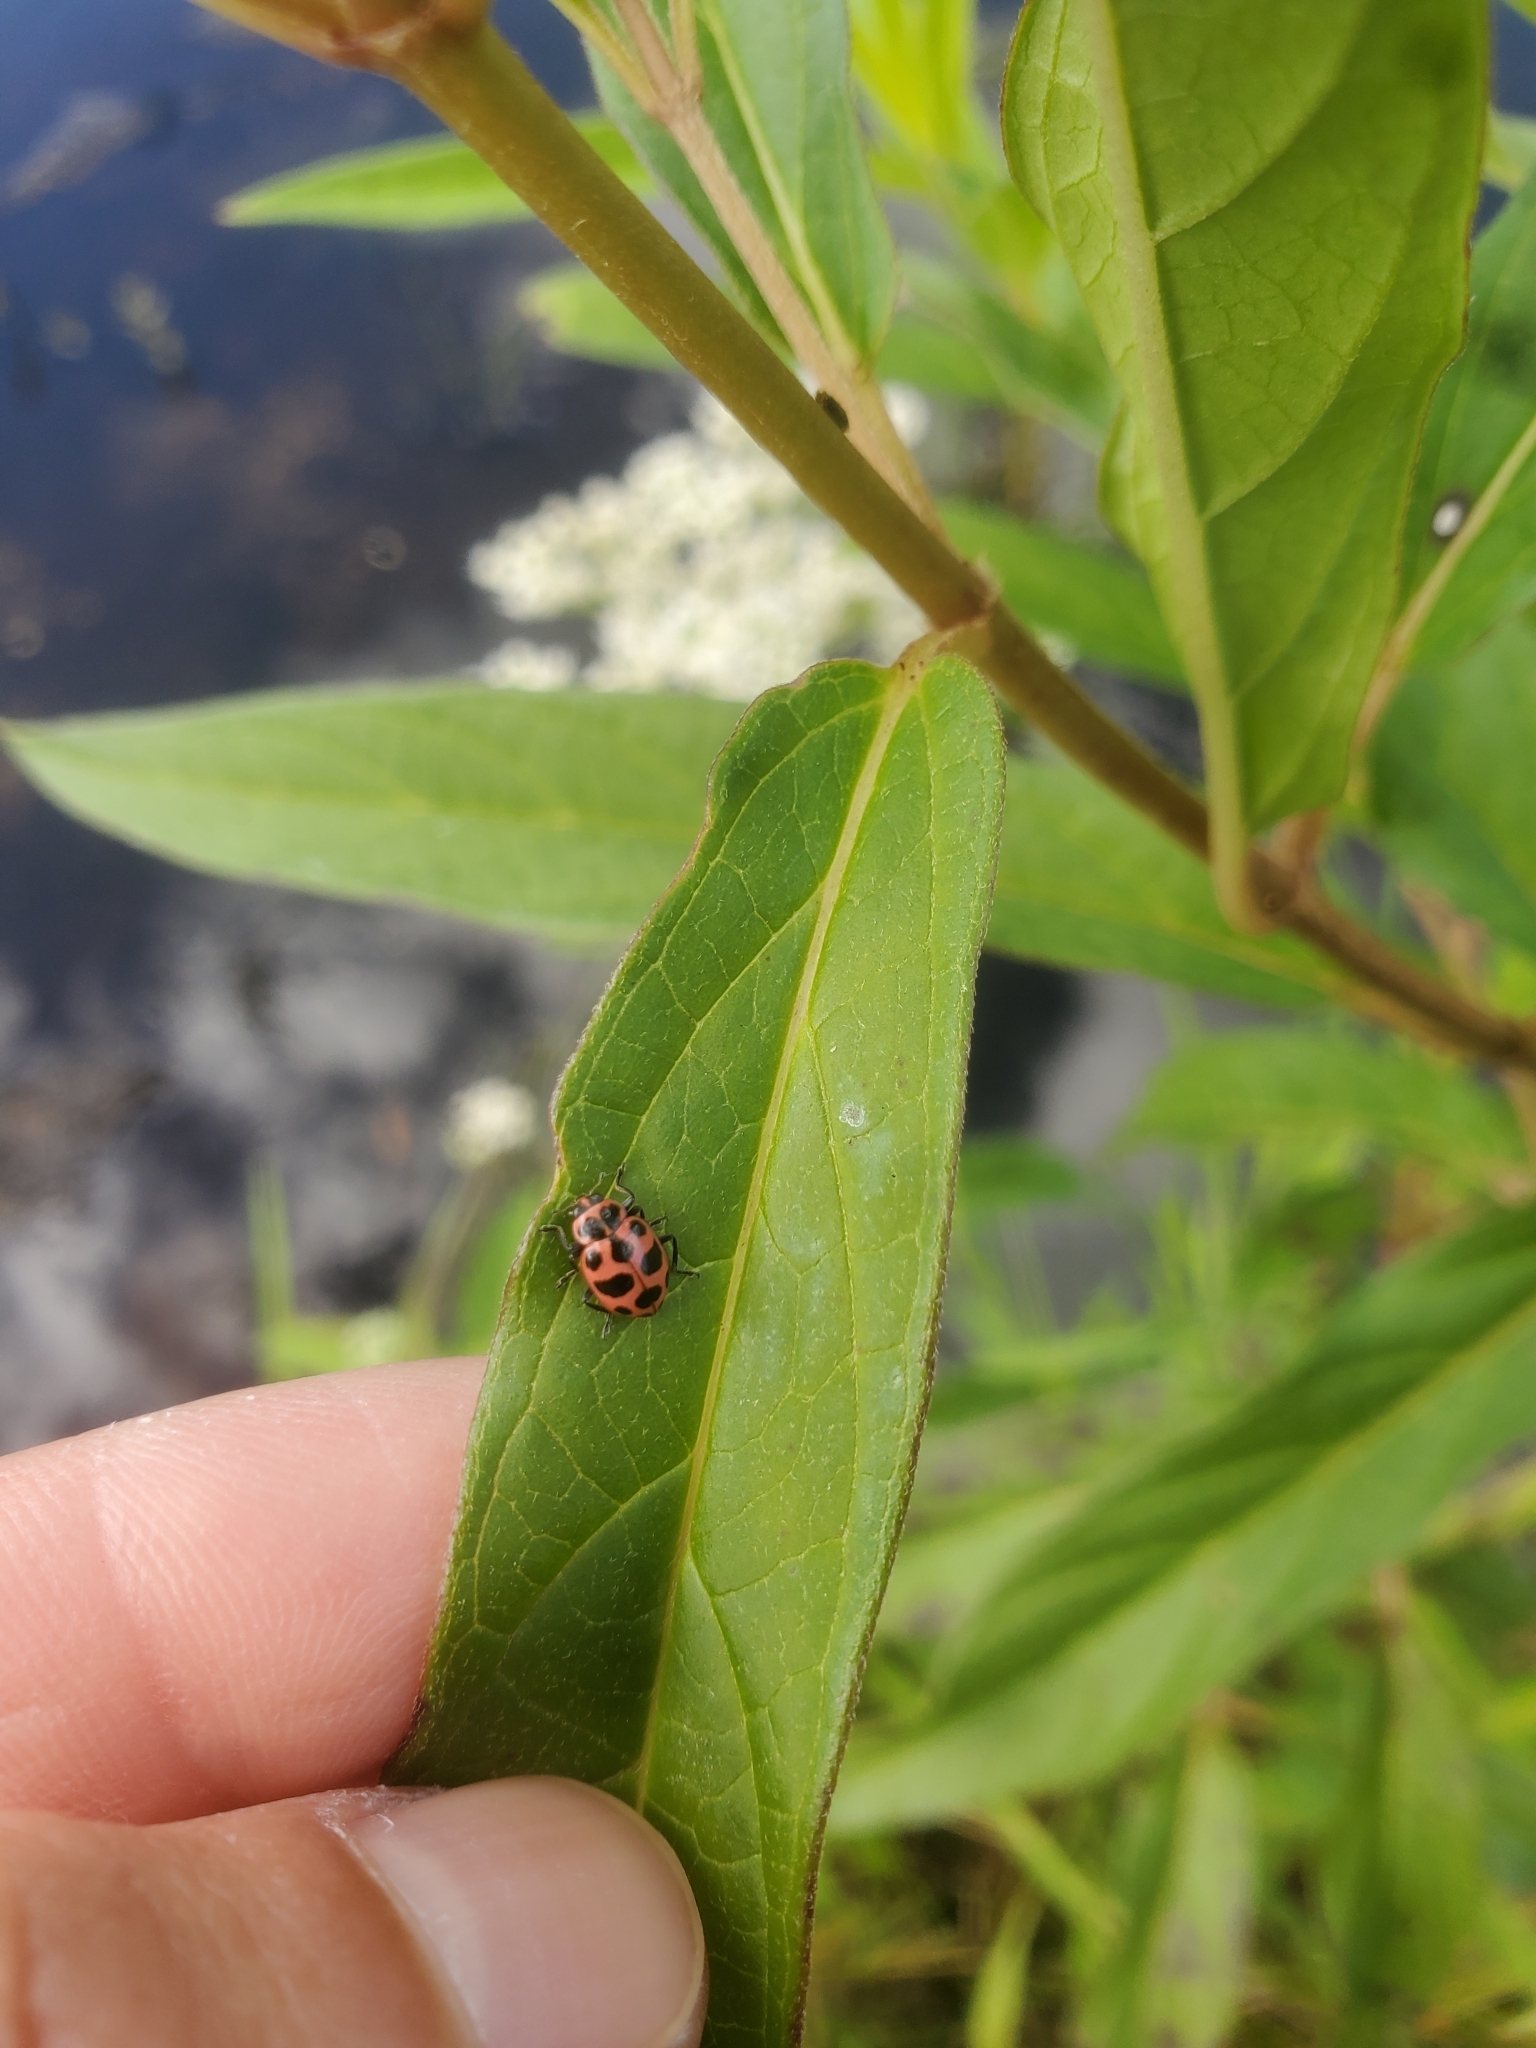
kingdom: Animalia
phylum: Arthropoda
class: Insecta
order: Coleoptera
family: Coccinellidae
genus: Coleomegilla
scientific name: Coleomegilla maculata
